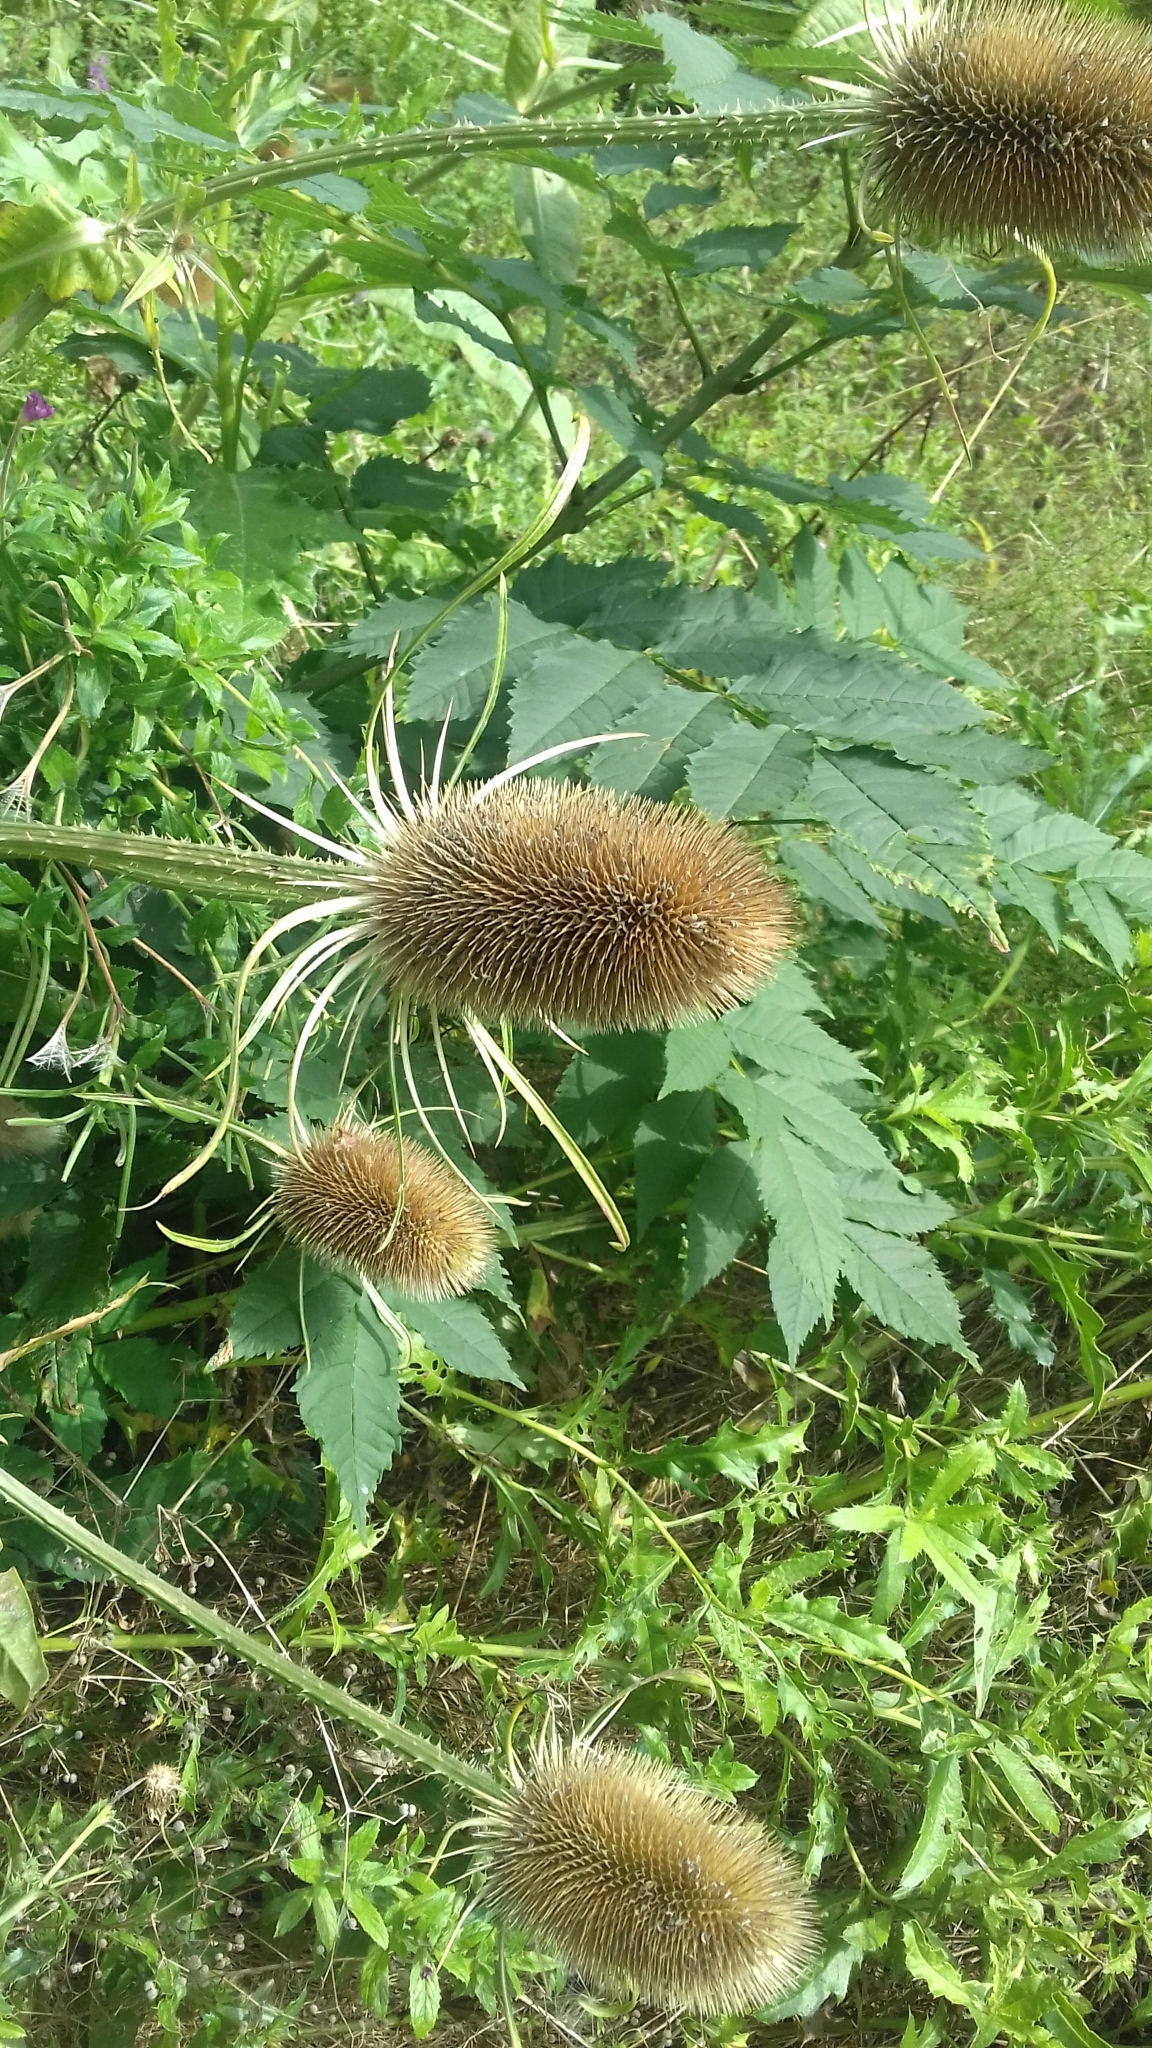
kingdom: Plantae
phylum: Tracheophyta
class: Magnoliopsida
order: Dipsacales
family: Caprifoliaceae
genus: Dipsacus
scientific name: Dipsacus fullonum
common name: Teasel
